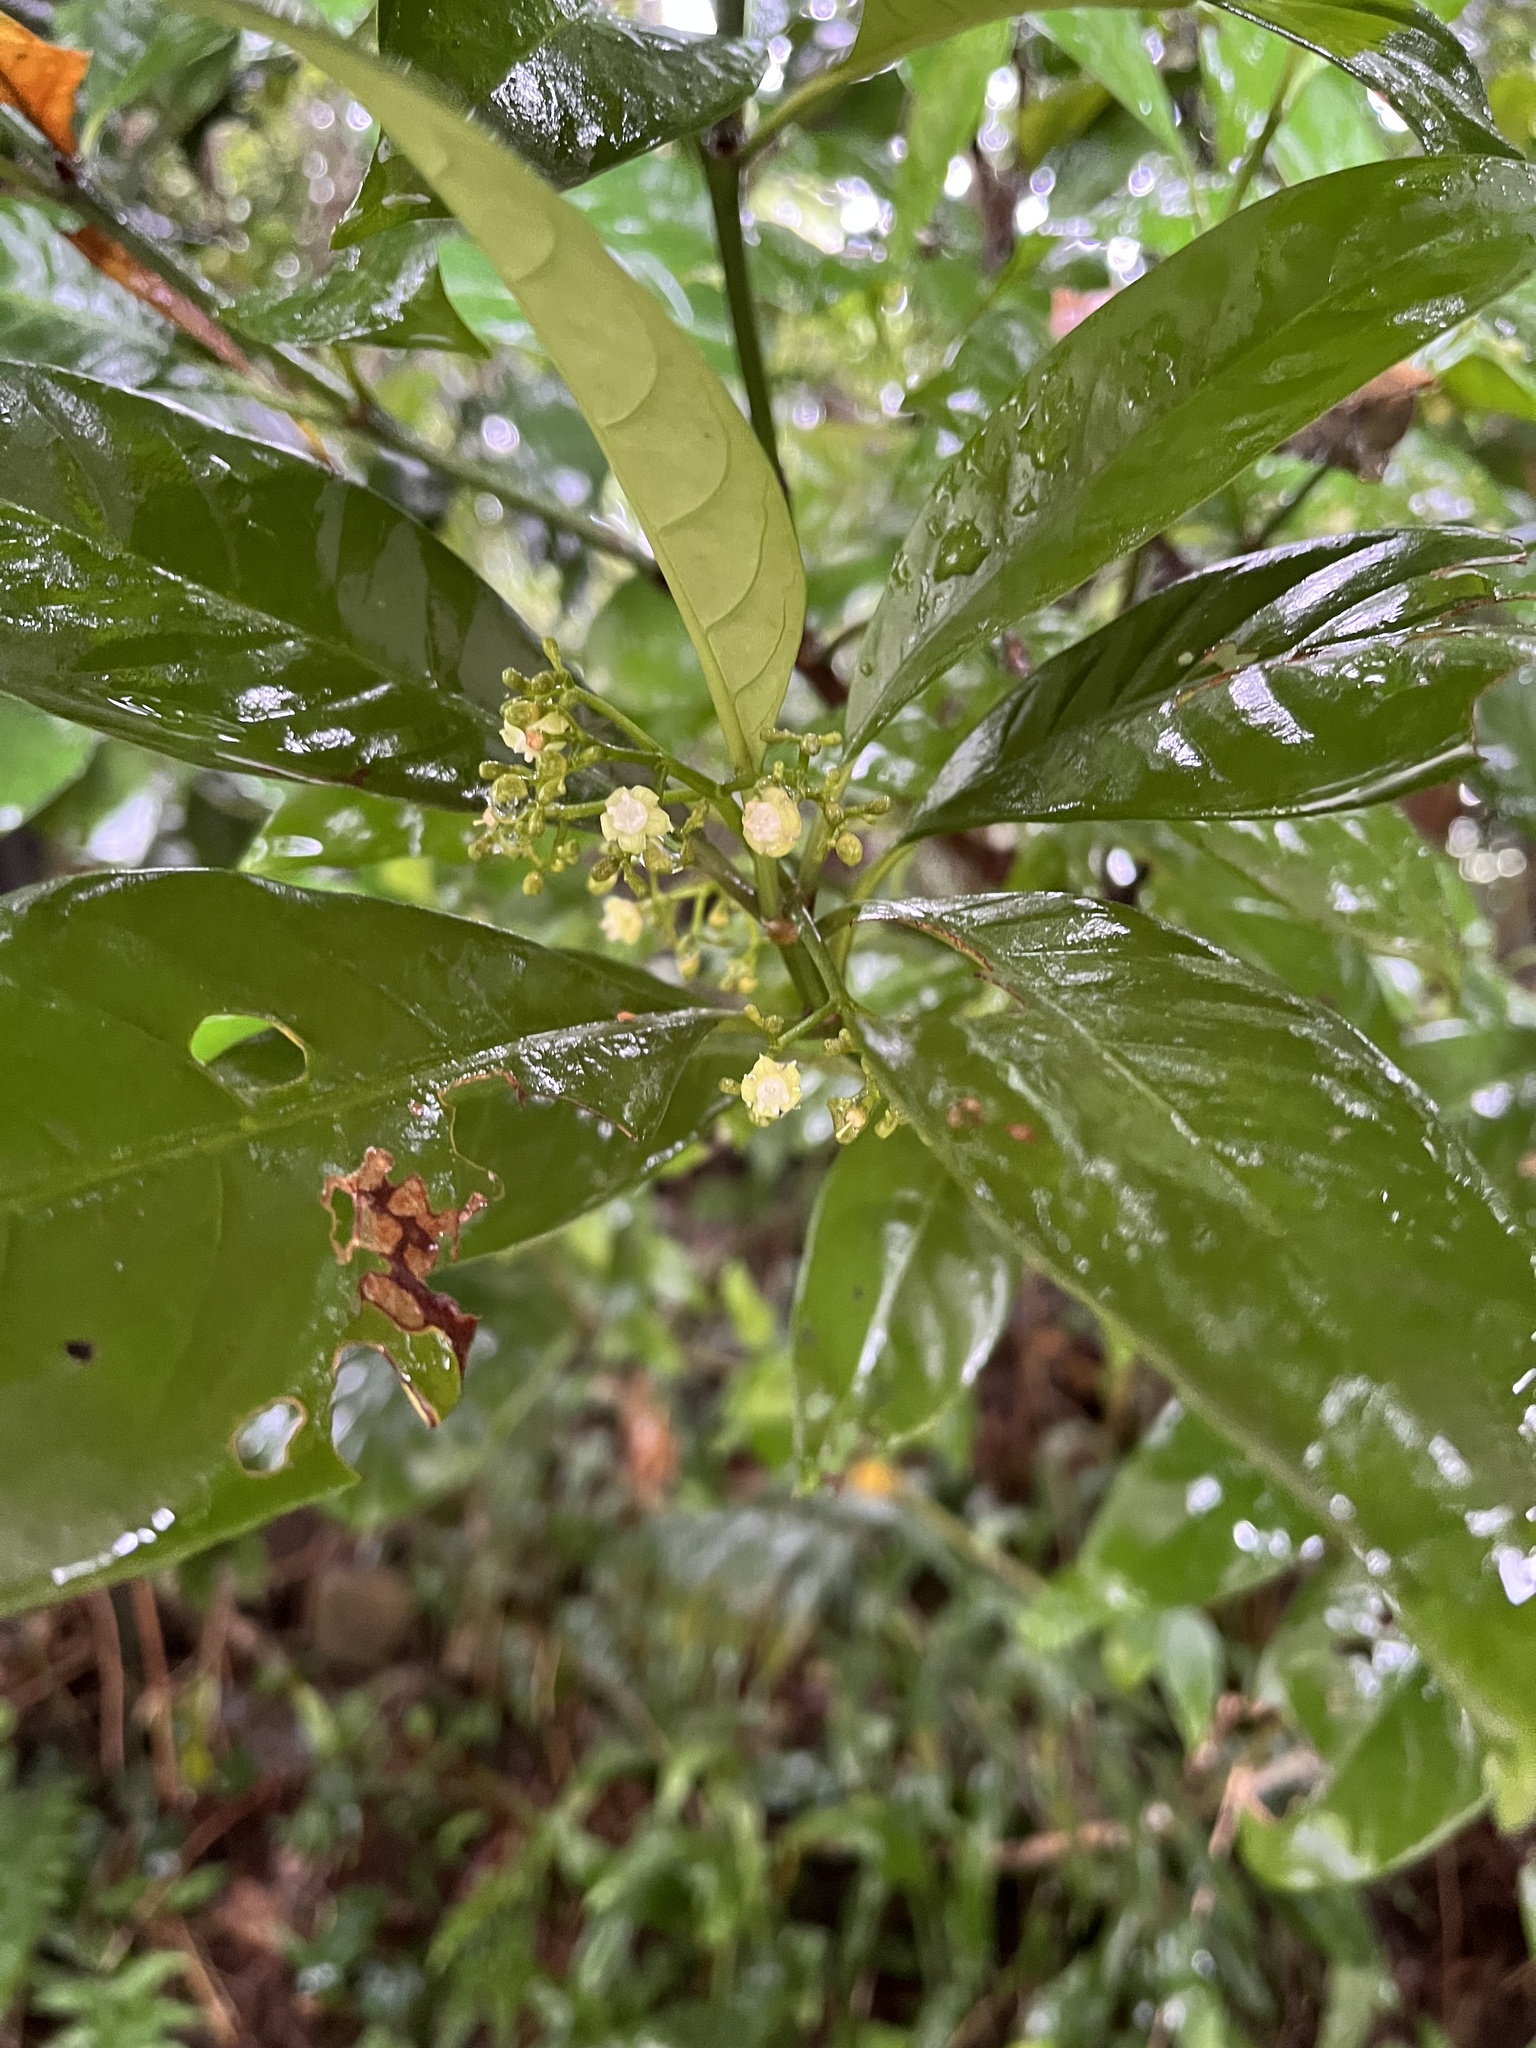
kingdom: Plantae
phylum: Tracheophyta
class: Magnoliopsida
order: Gentianales
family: Rubiaceae
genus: Psychotria
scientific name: Psychotria asiatica
